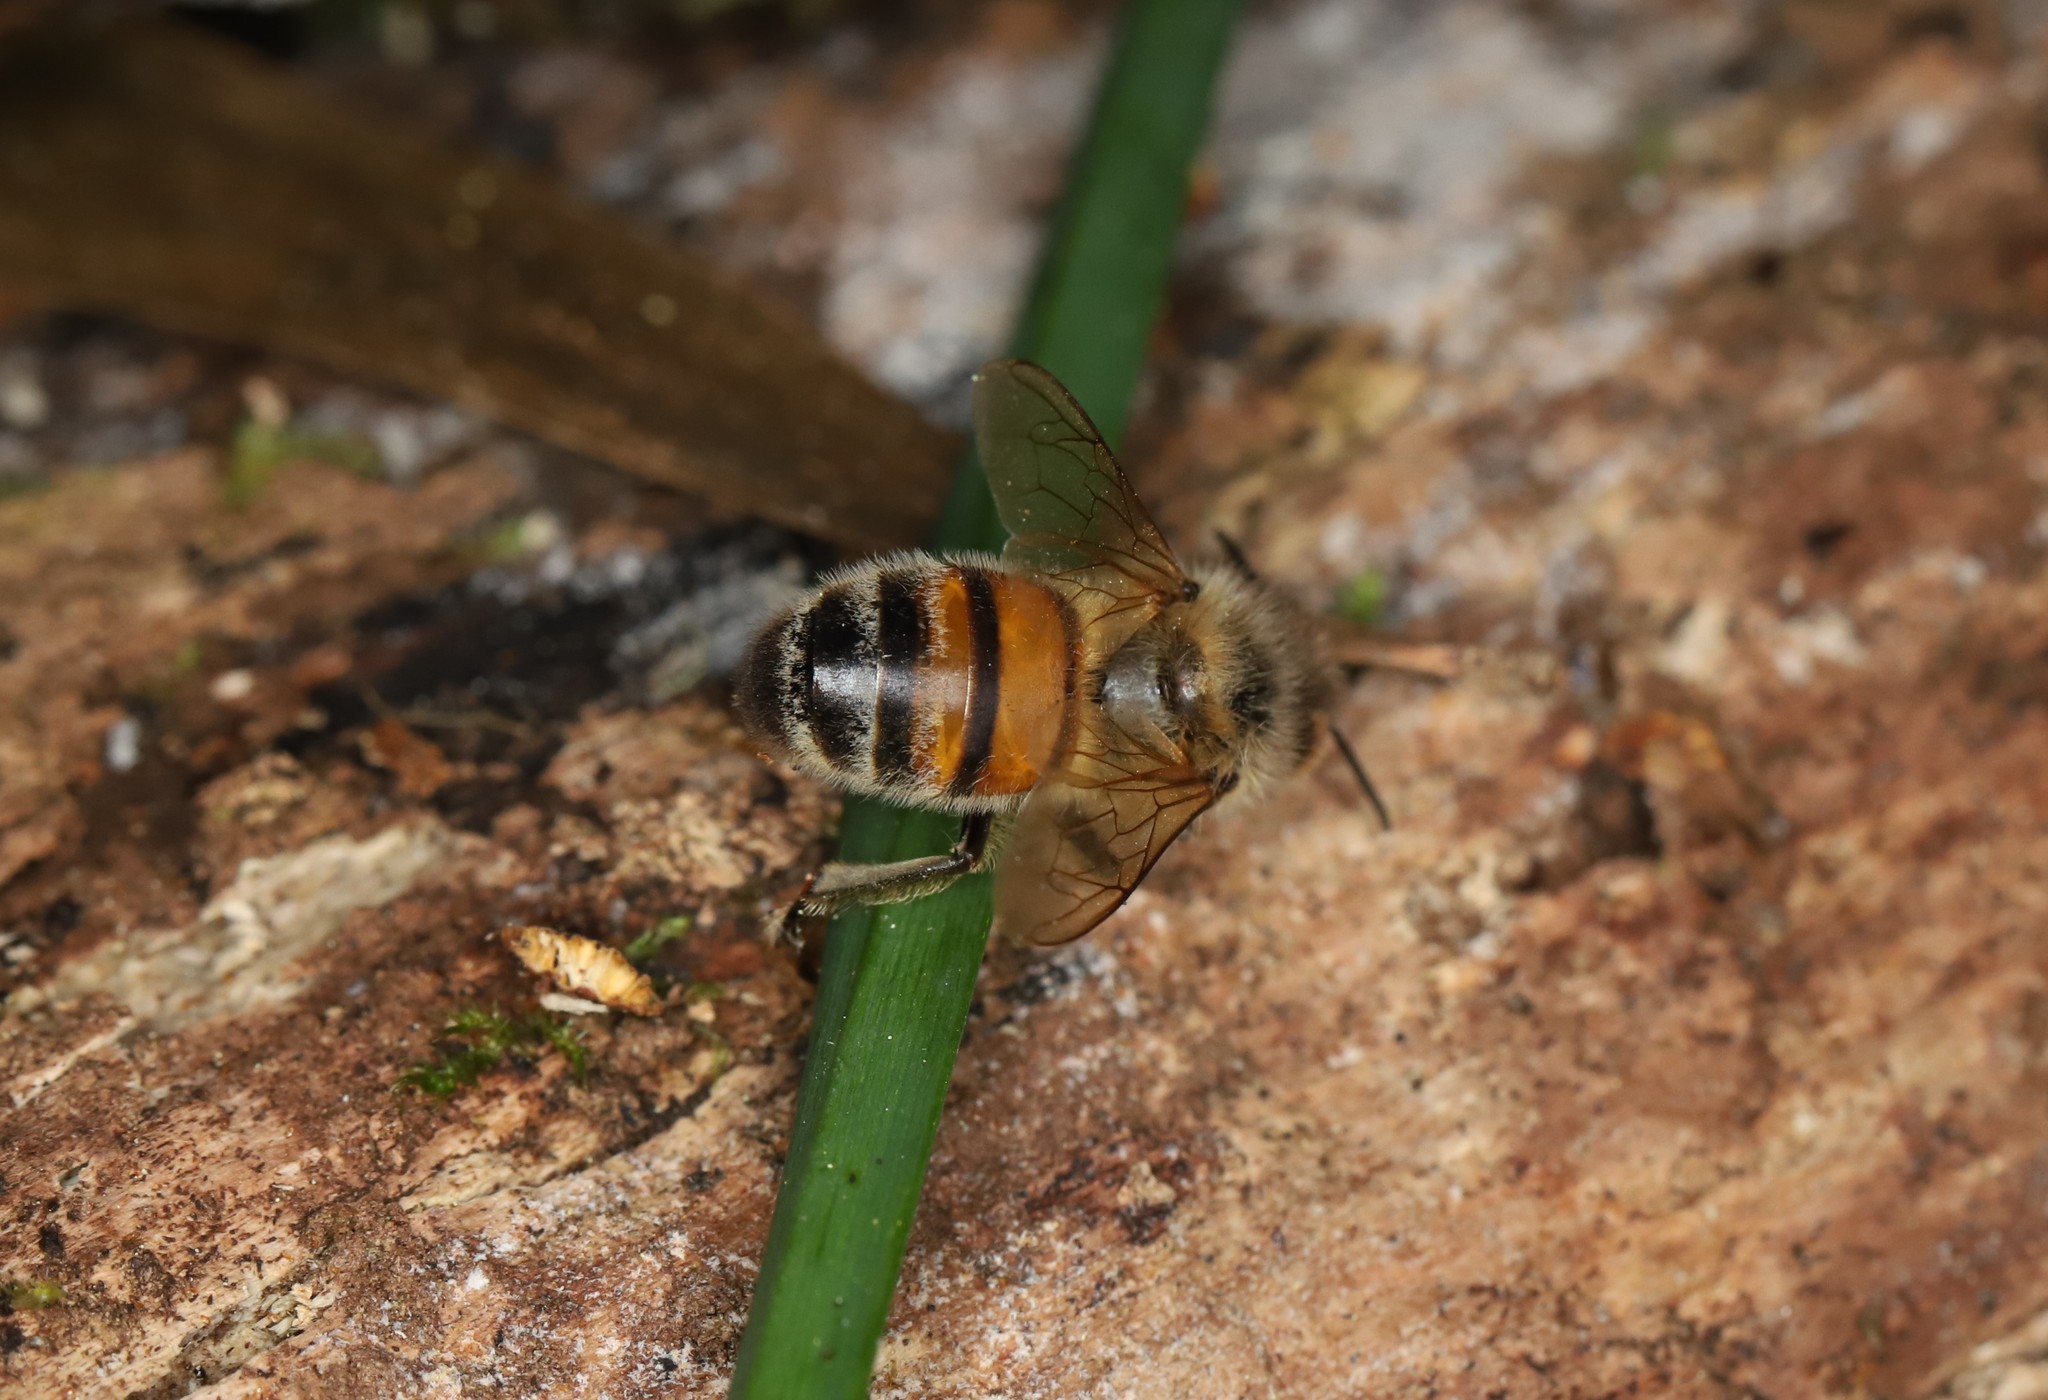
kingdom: Animalia
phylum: Arthropoda
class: Insecta
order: Hymenoptera
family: Apidae
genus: Apis
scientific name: Apis mellifera
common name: Honey bee
